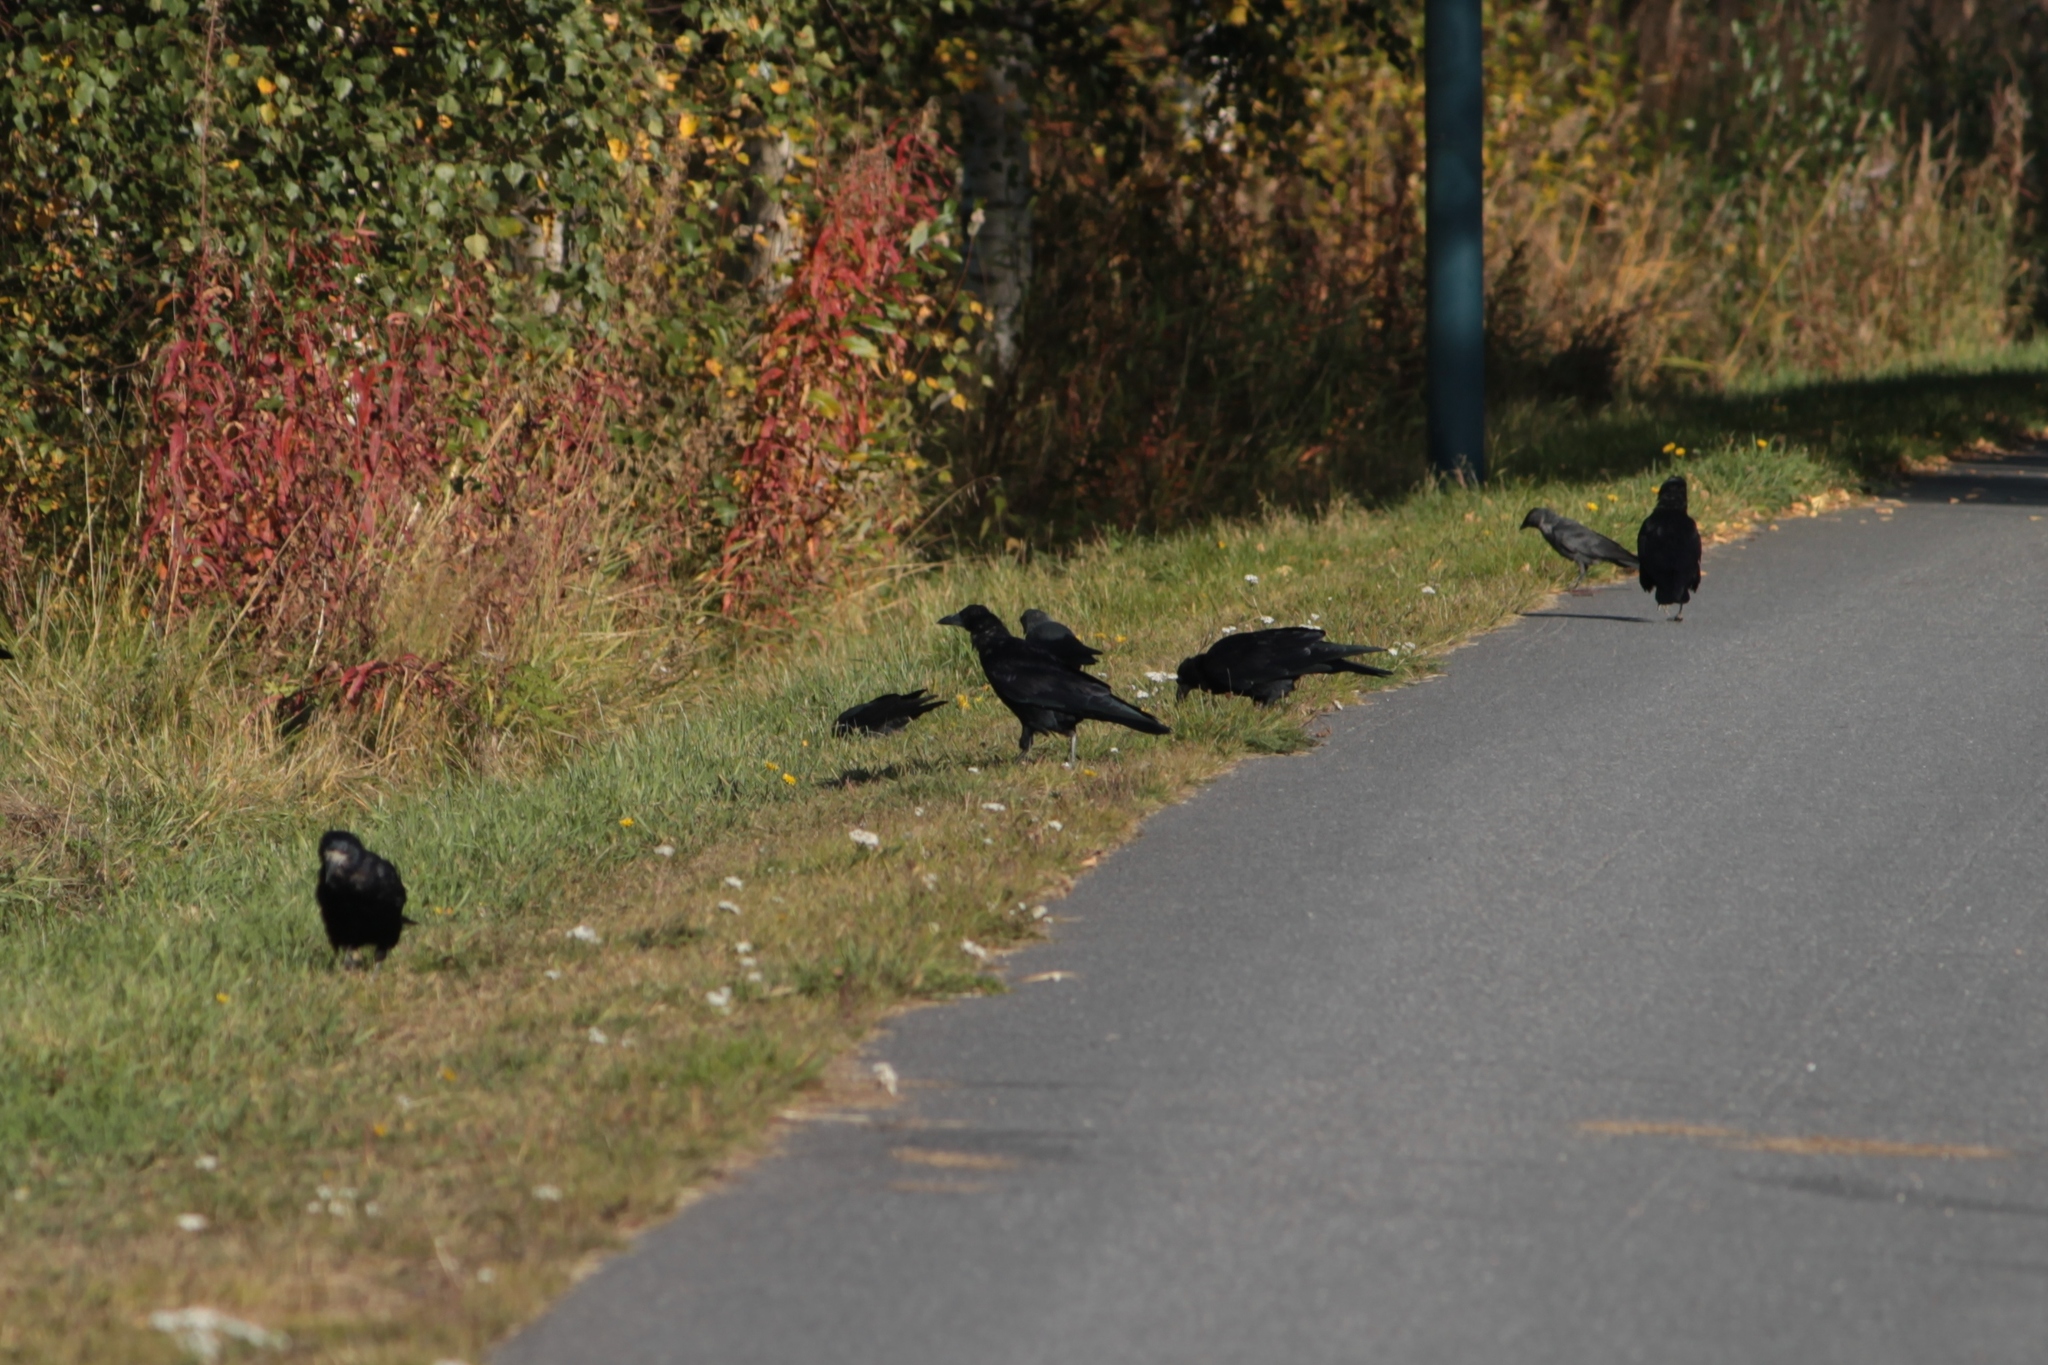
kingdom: Animalia
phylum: Chordata
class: Aves
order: Passeriformes
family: Corvidae
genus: Corvus
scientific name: Corvus frugilegus
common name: Rook
